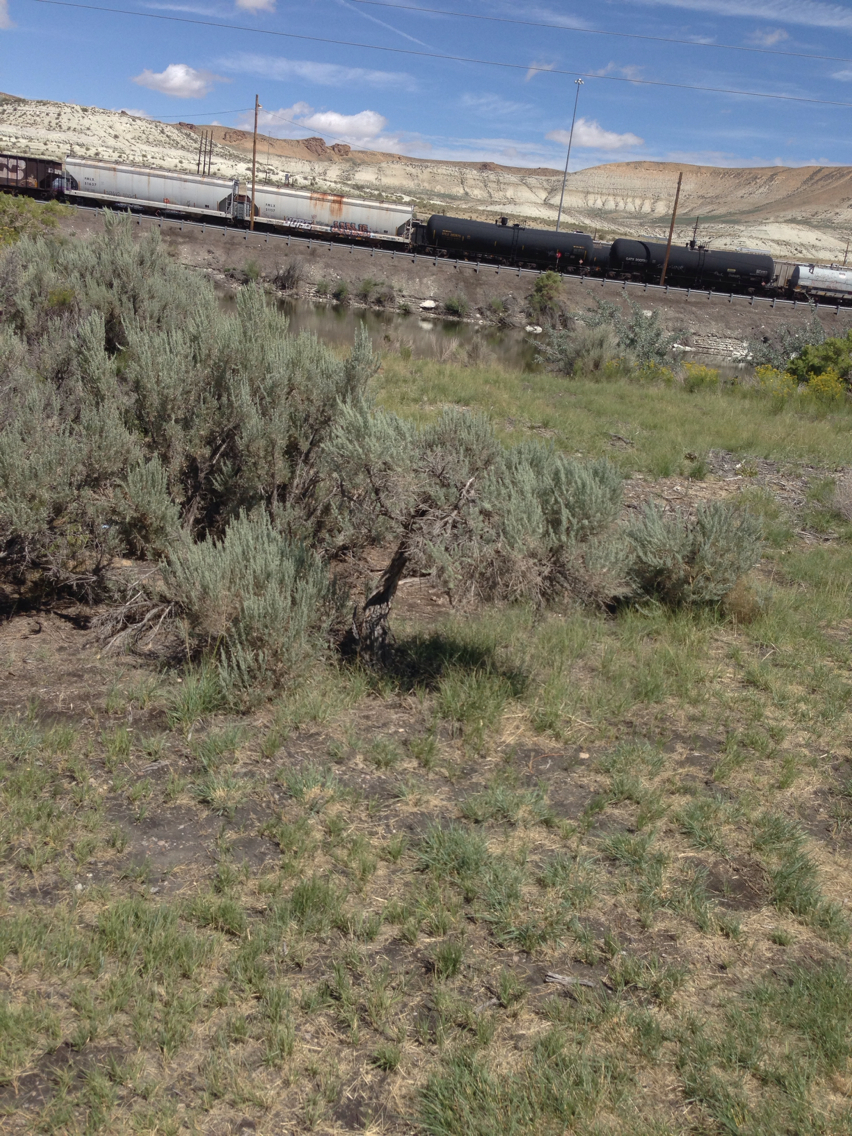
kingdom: Plantae
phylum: Tracheophyta
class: Magnoliopsida
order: Asterales
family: Asteraceae
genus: Artemisia
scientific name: Artemisia tridentata
